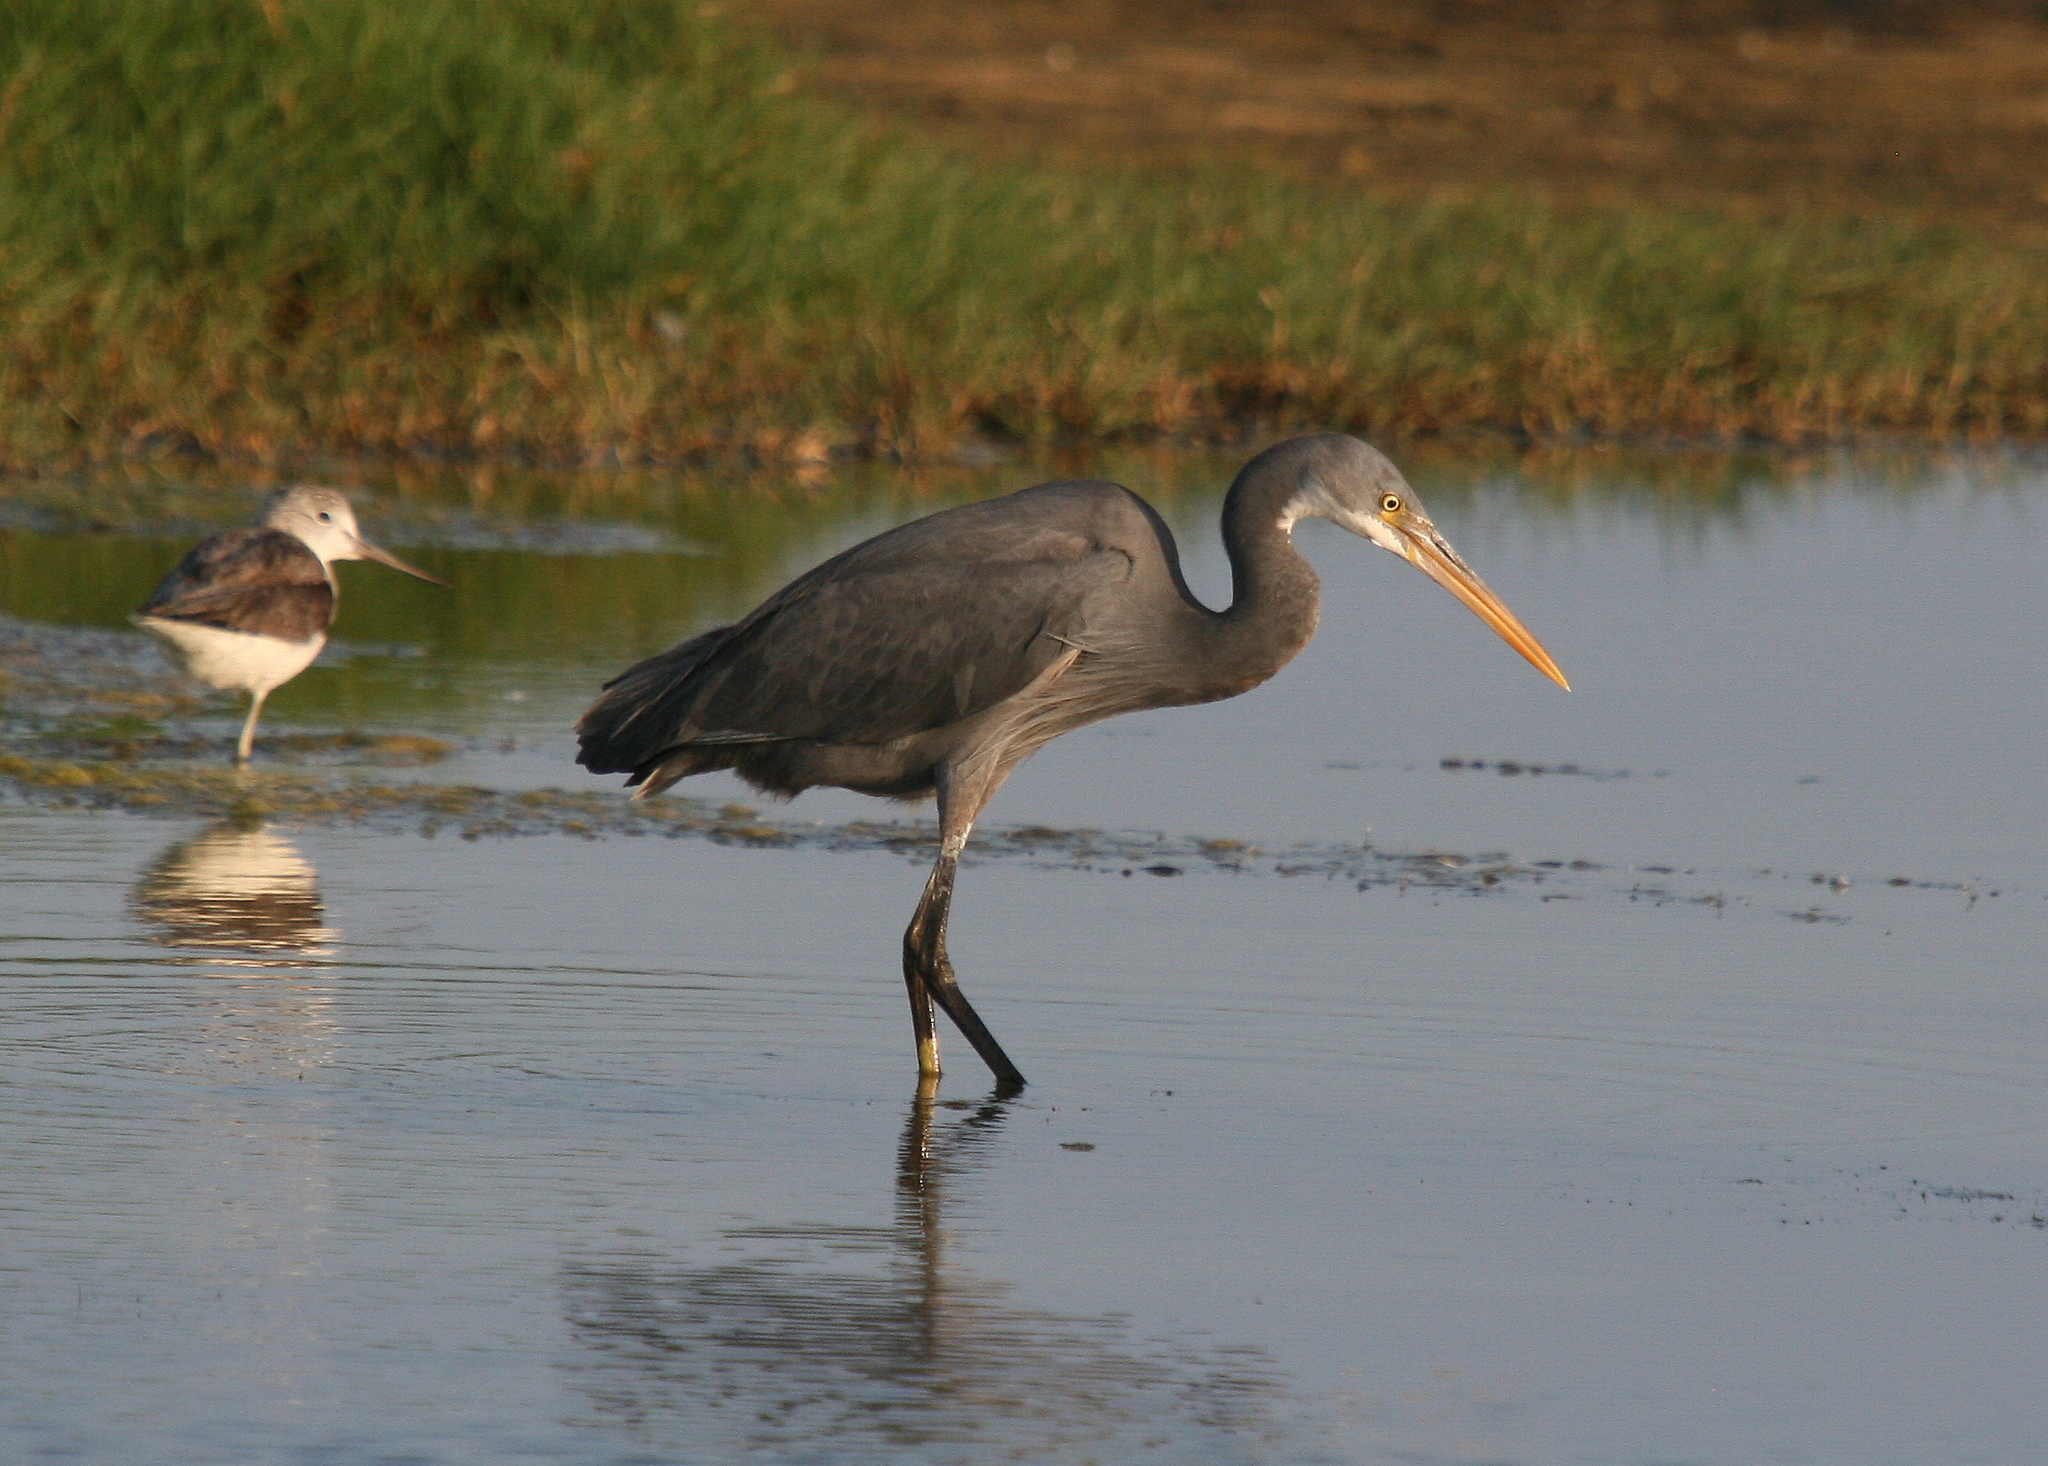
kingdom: Animalia
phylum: Chordata
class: Aves
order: Pelecaniformes
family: Ardeidae
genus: Egretta
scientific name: Egretta gularis
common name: Western reef-heron
